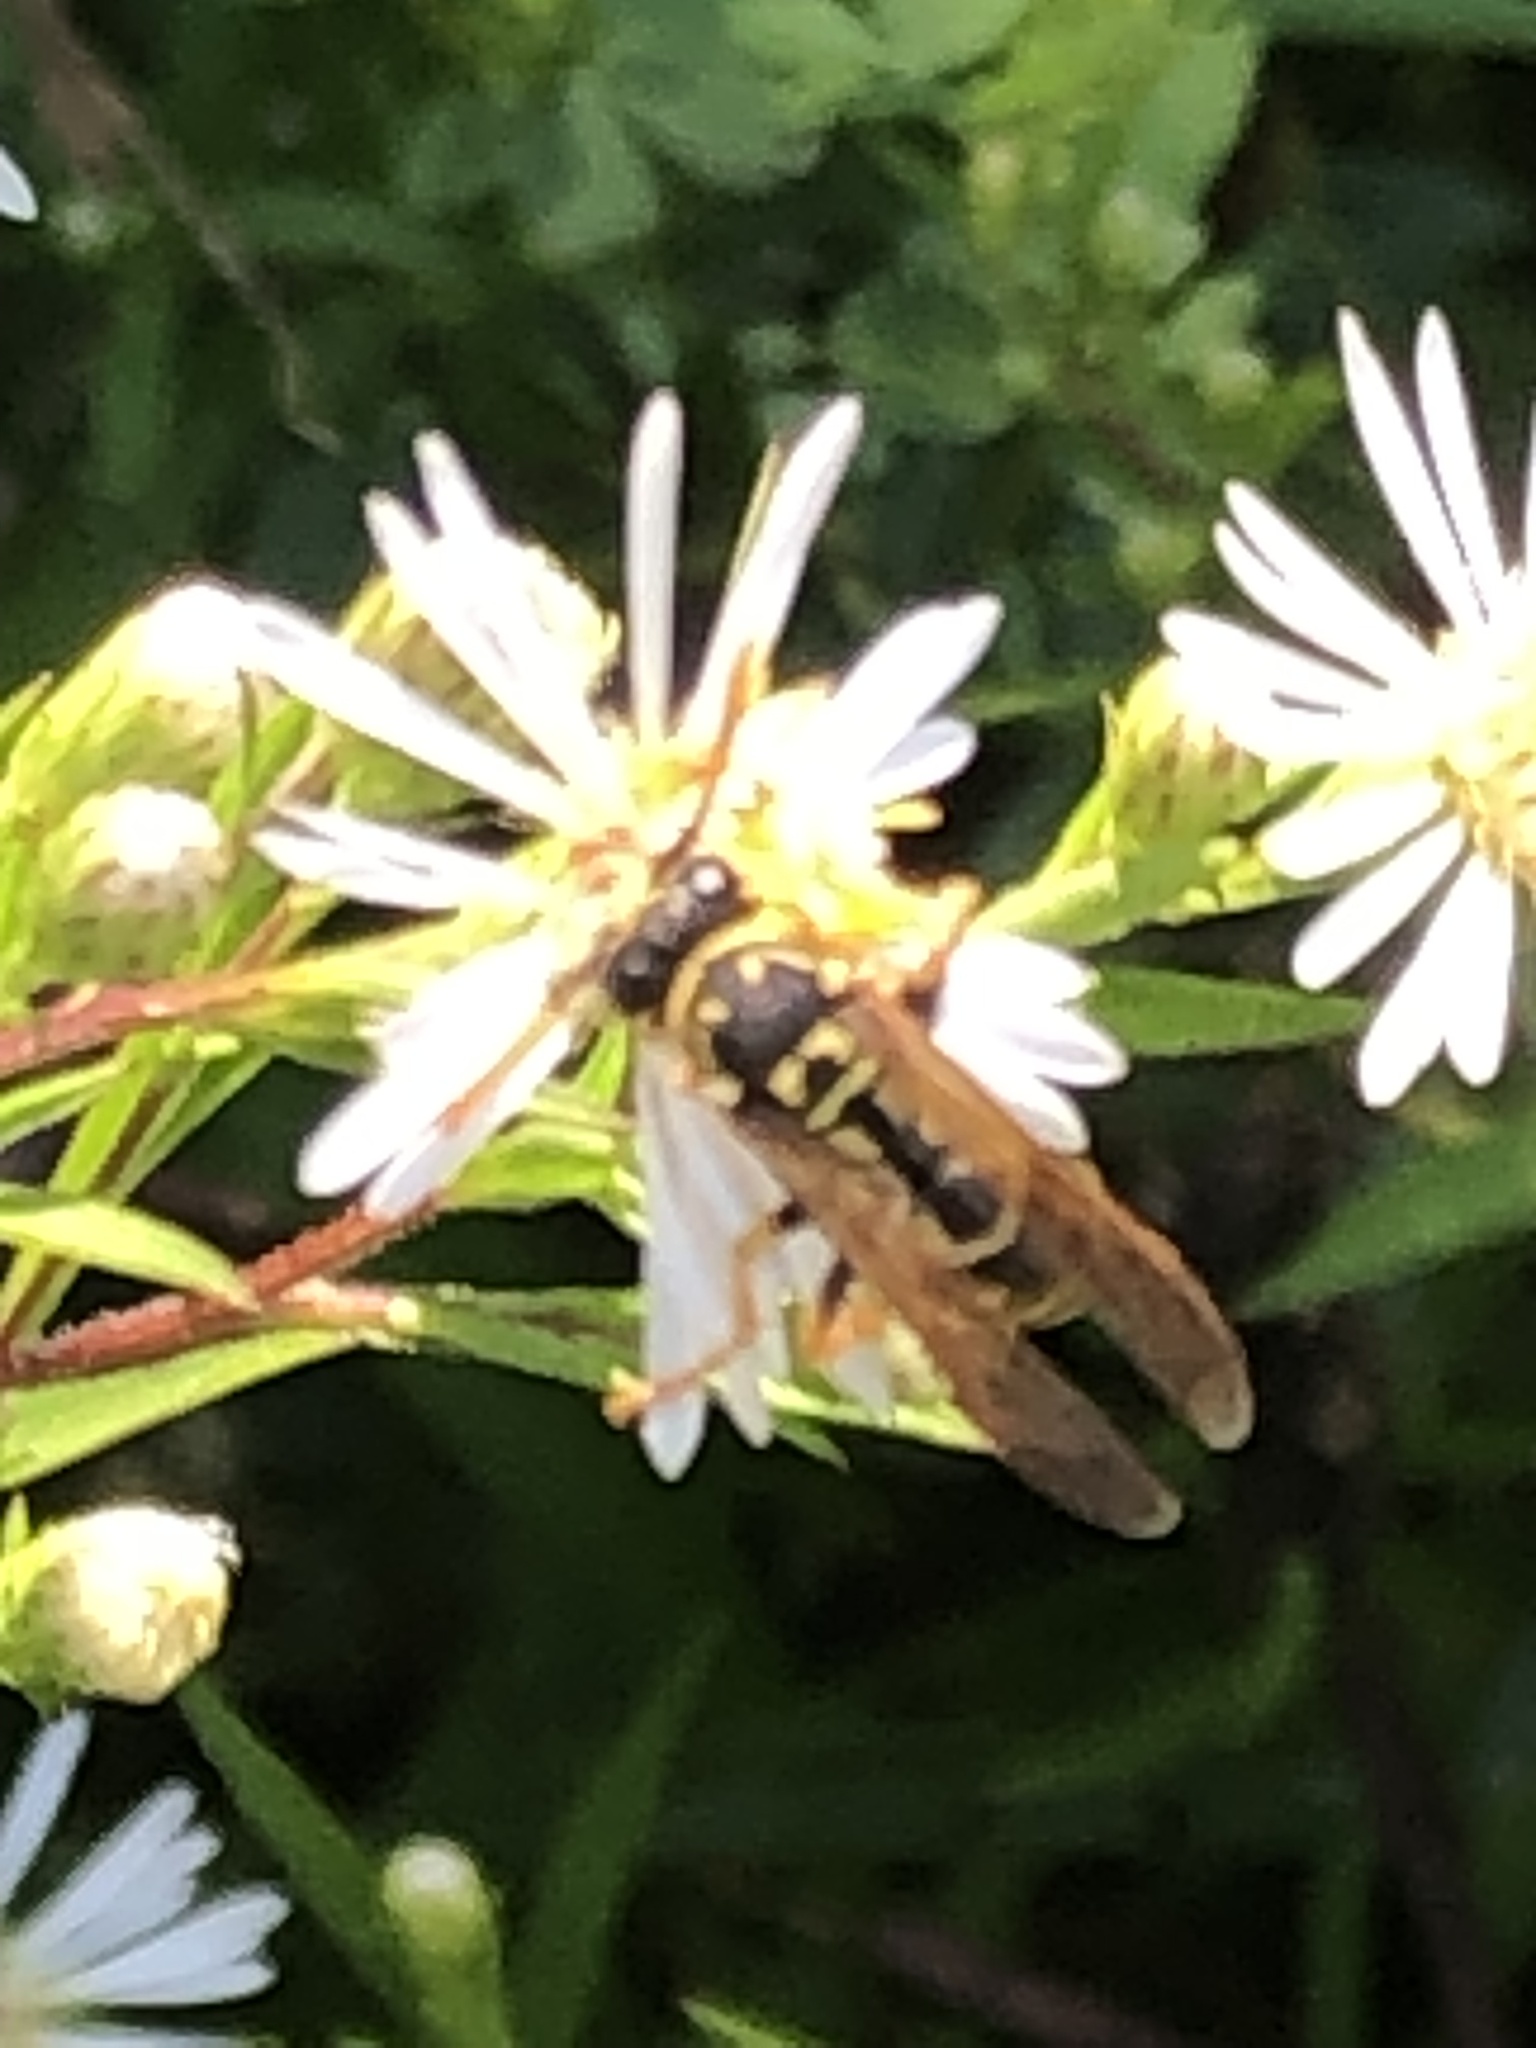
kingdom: Animalia
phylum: Arthropoda
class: Insecta
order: Hymenoptera
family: Eumenidae
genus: Polistes
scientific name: Polistes dominula
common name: Paper wasp
